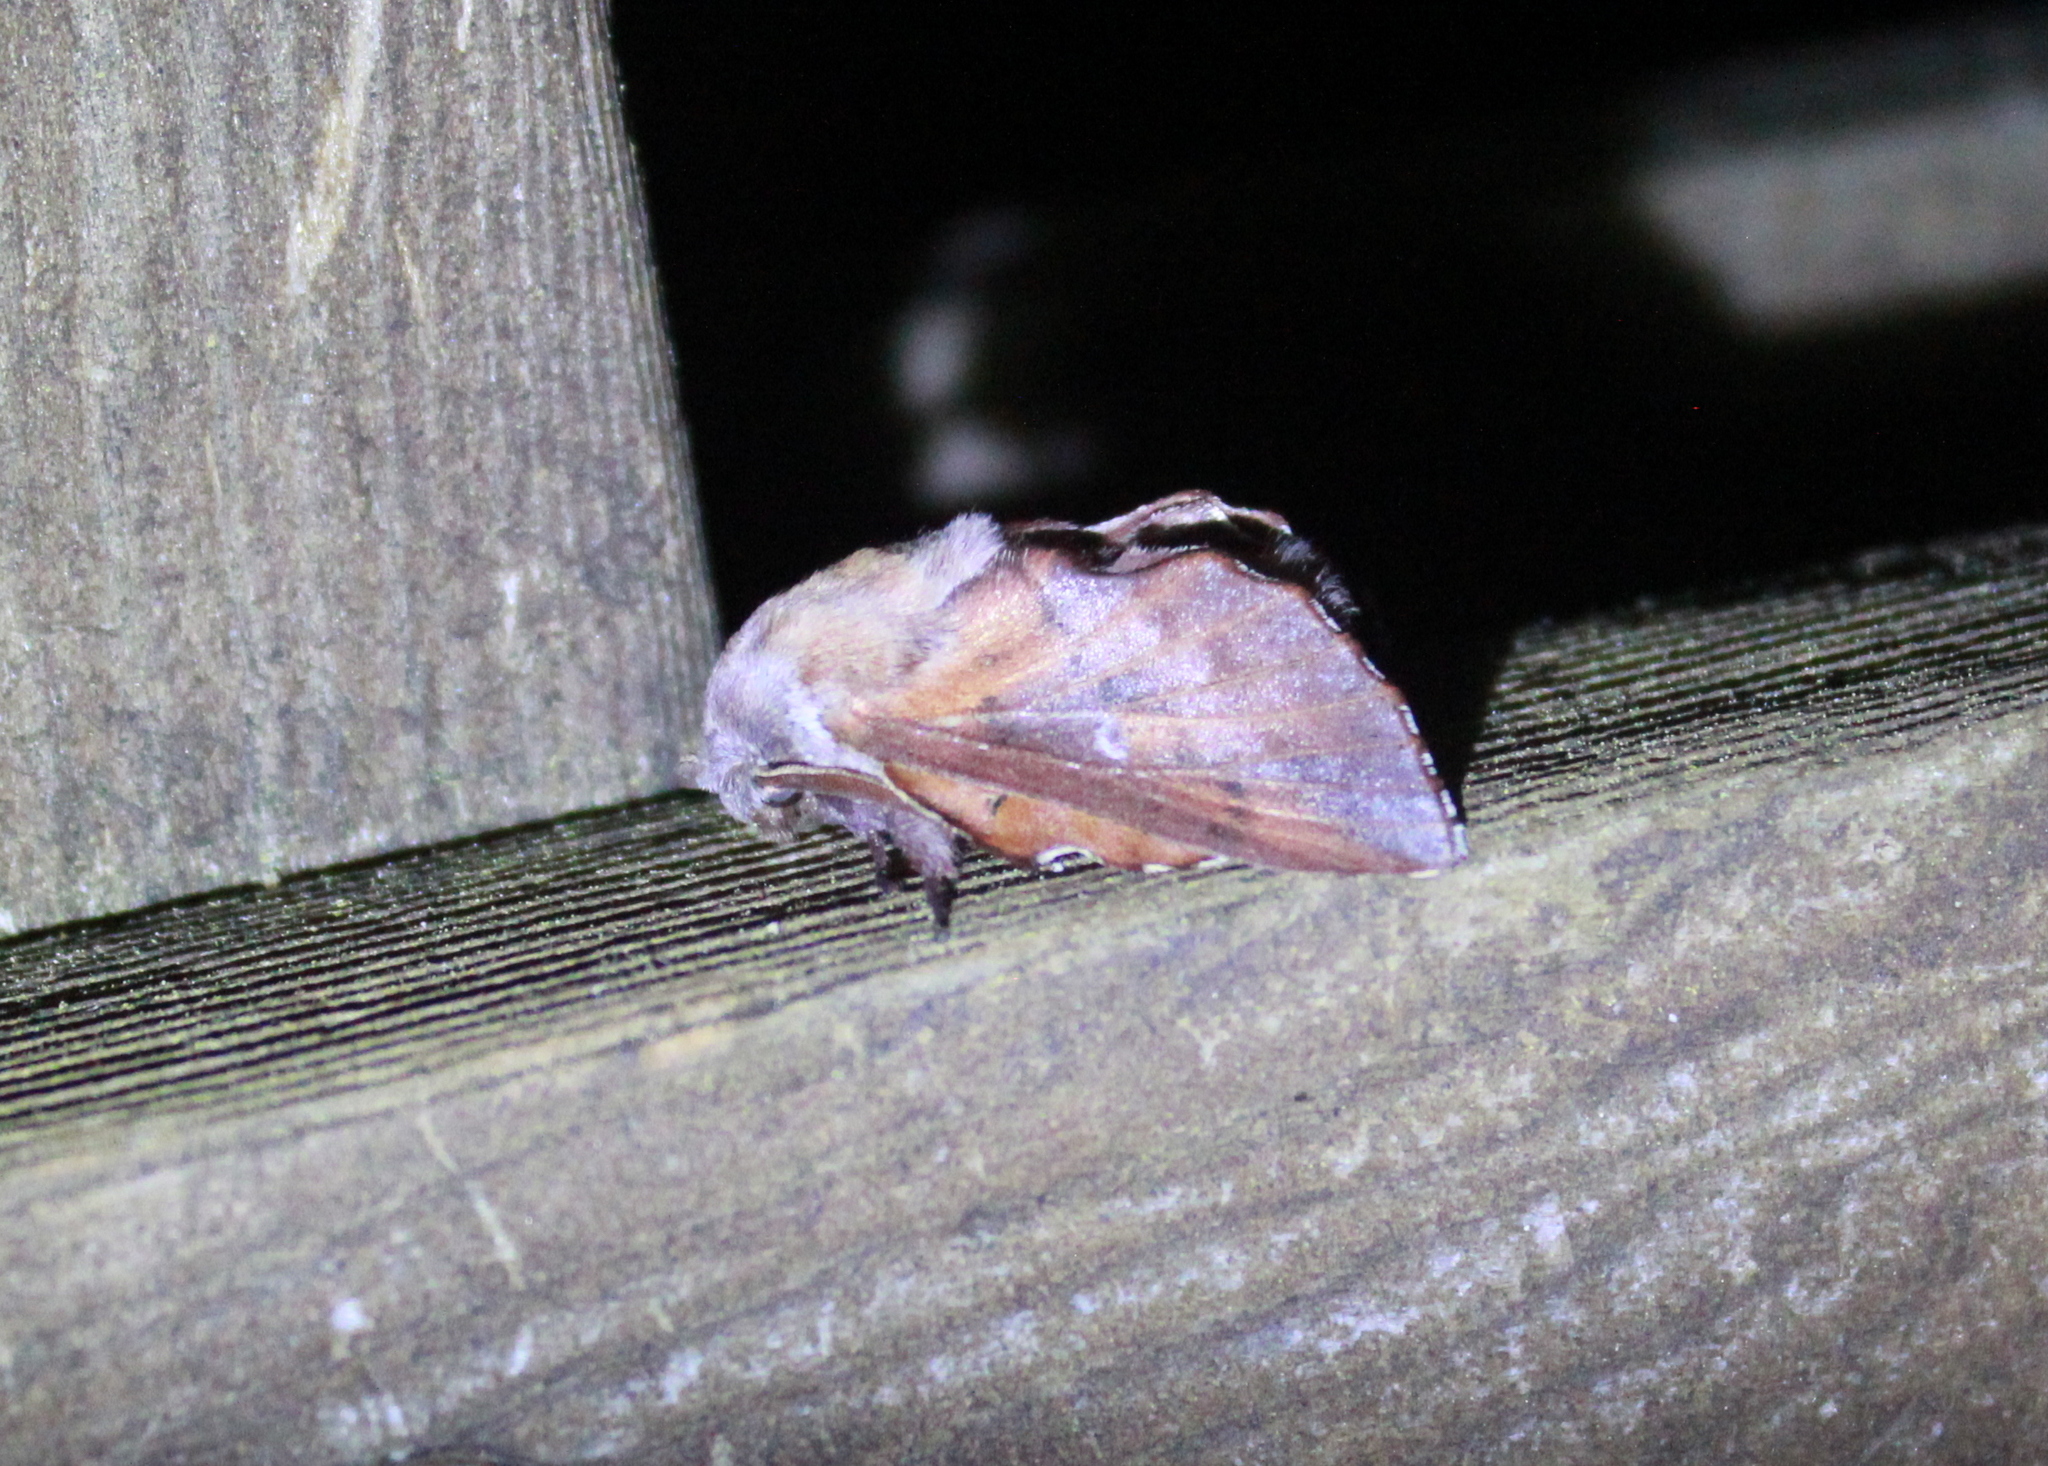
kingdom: Animalia
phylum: Arthropoda
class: Insecta
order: Lepidoptera
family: Lasiocampidae
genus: Phyllodesma
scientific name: Phyllodesma americana
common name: American lappet moth
